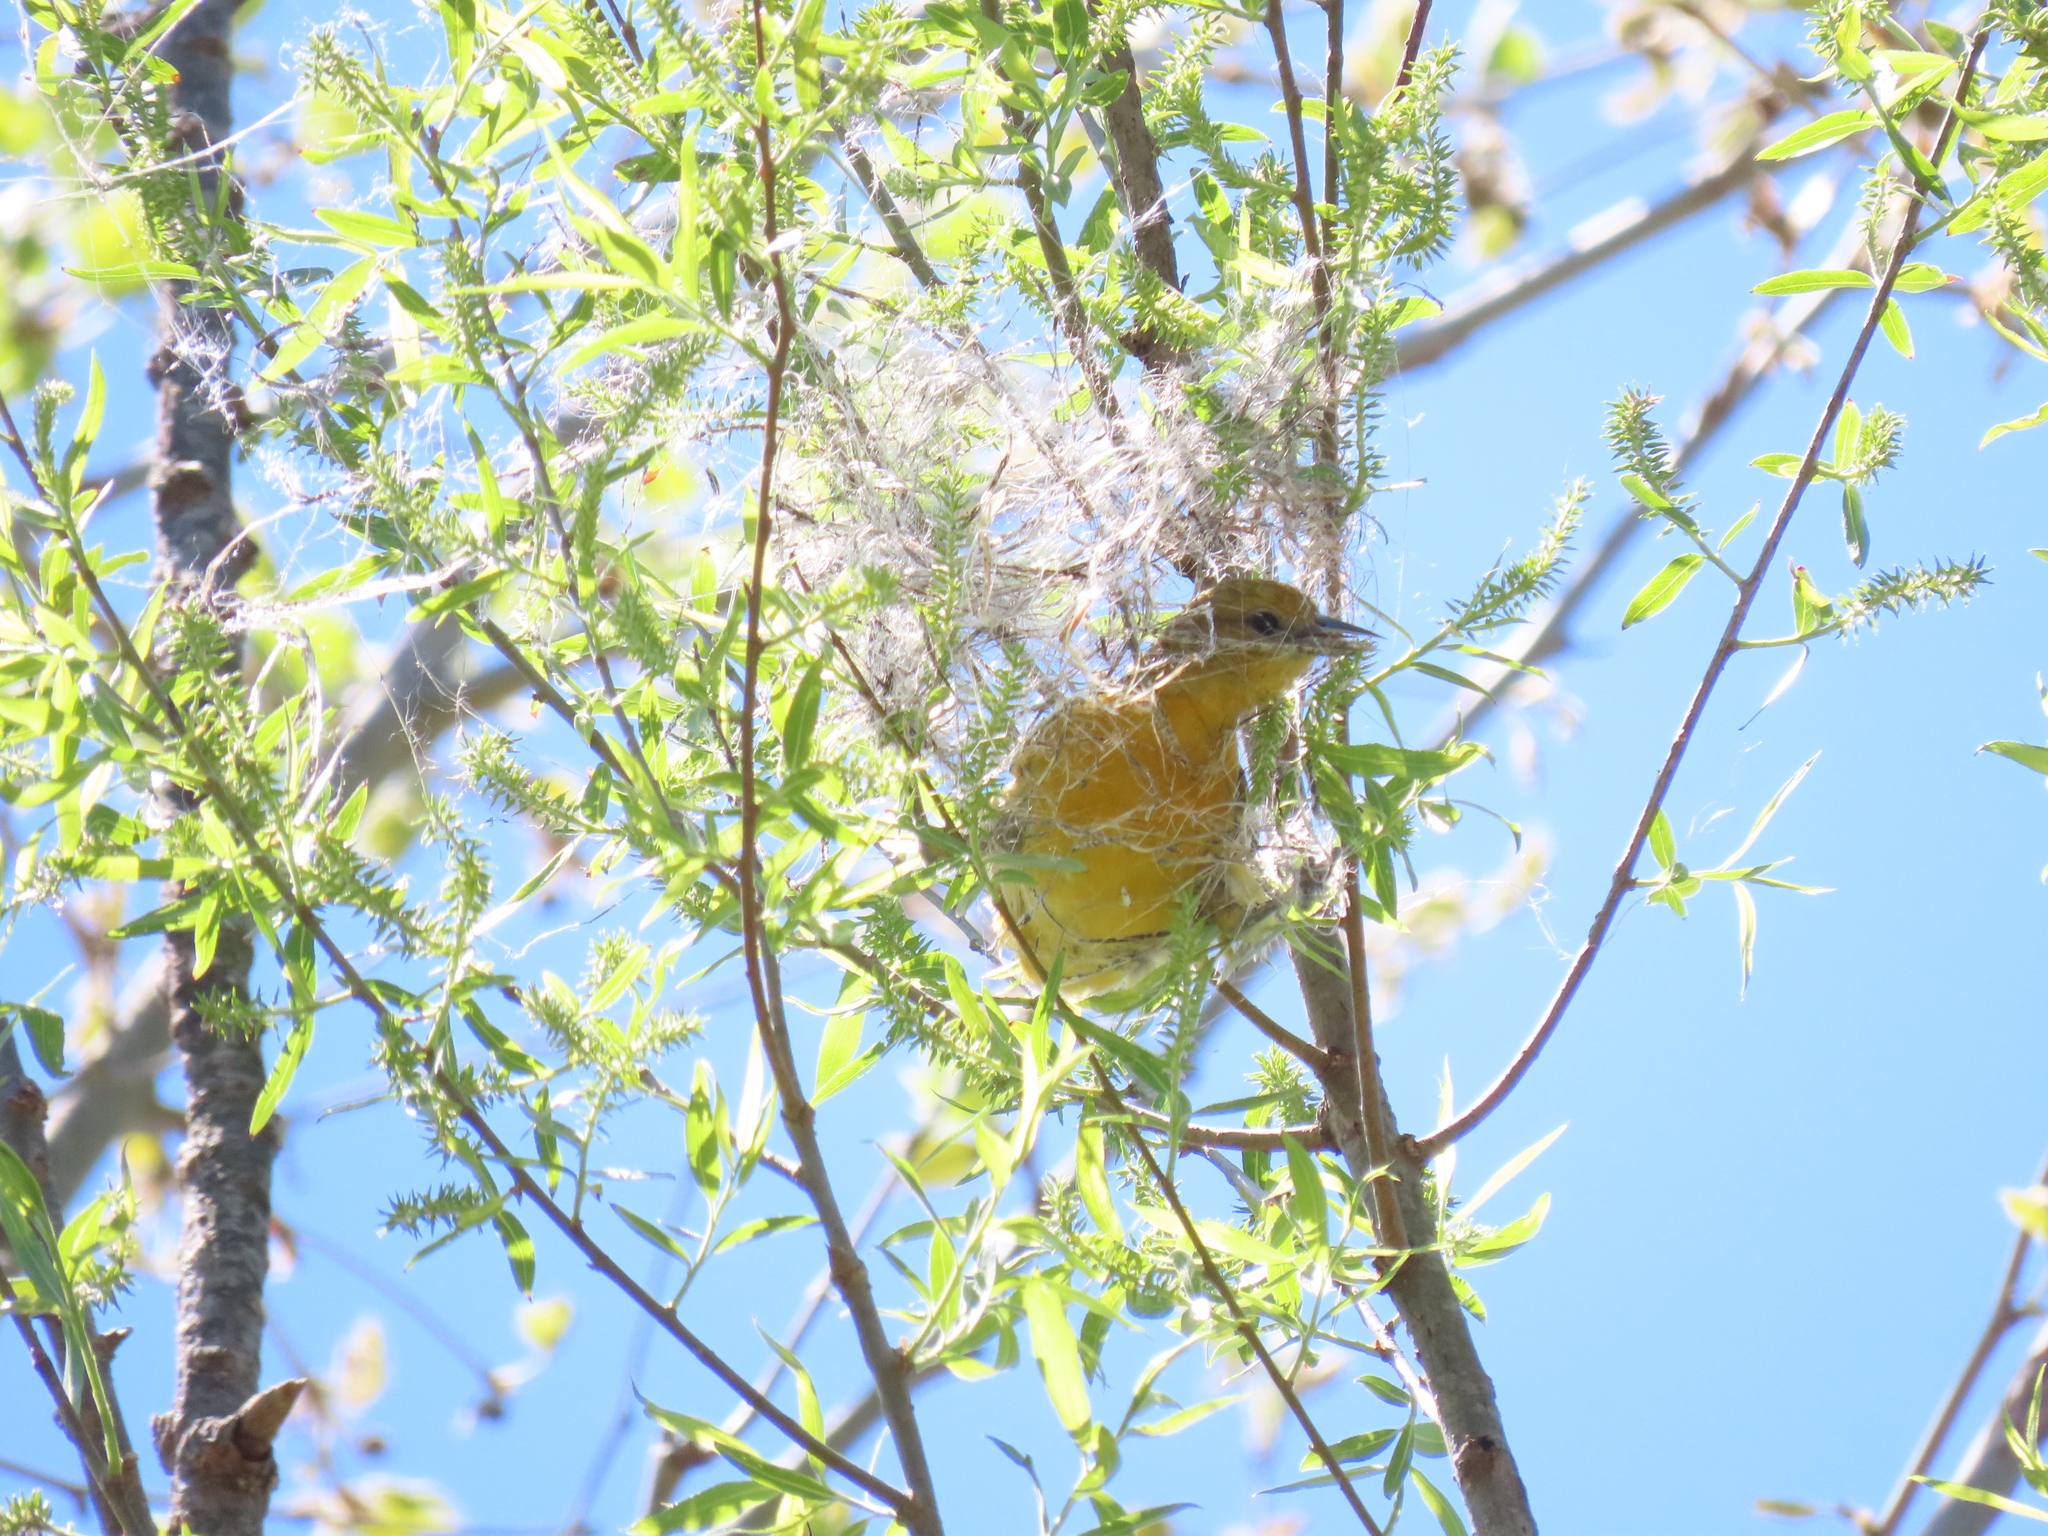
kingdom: Animalia
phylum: Chordata
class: Aves
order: Passeriformes
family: Icteridae
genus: Icterus
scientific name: Icterus galbula
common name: Baltimore oriole
